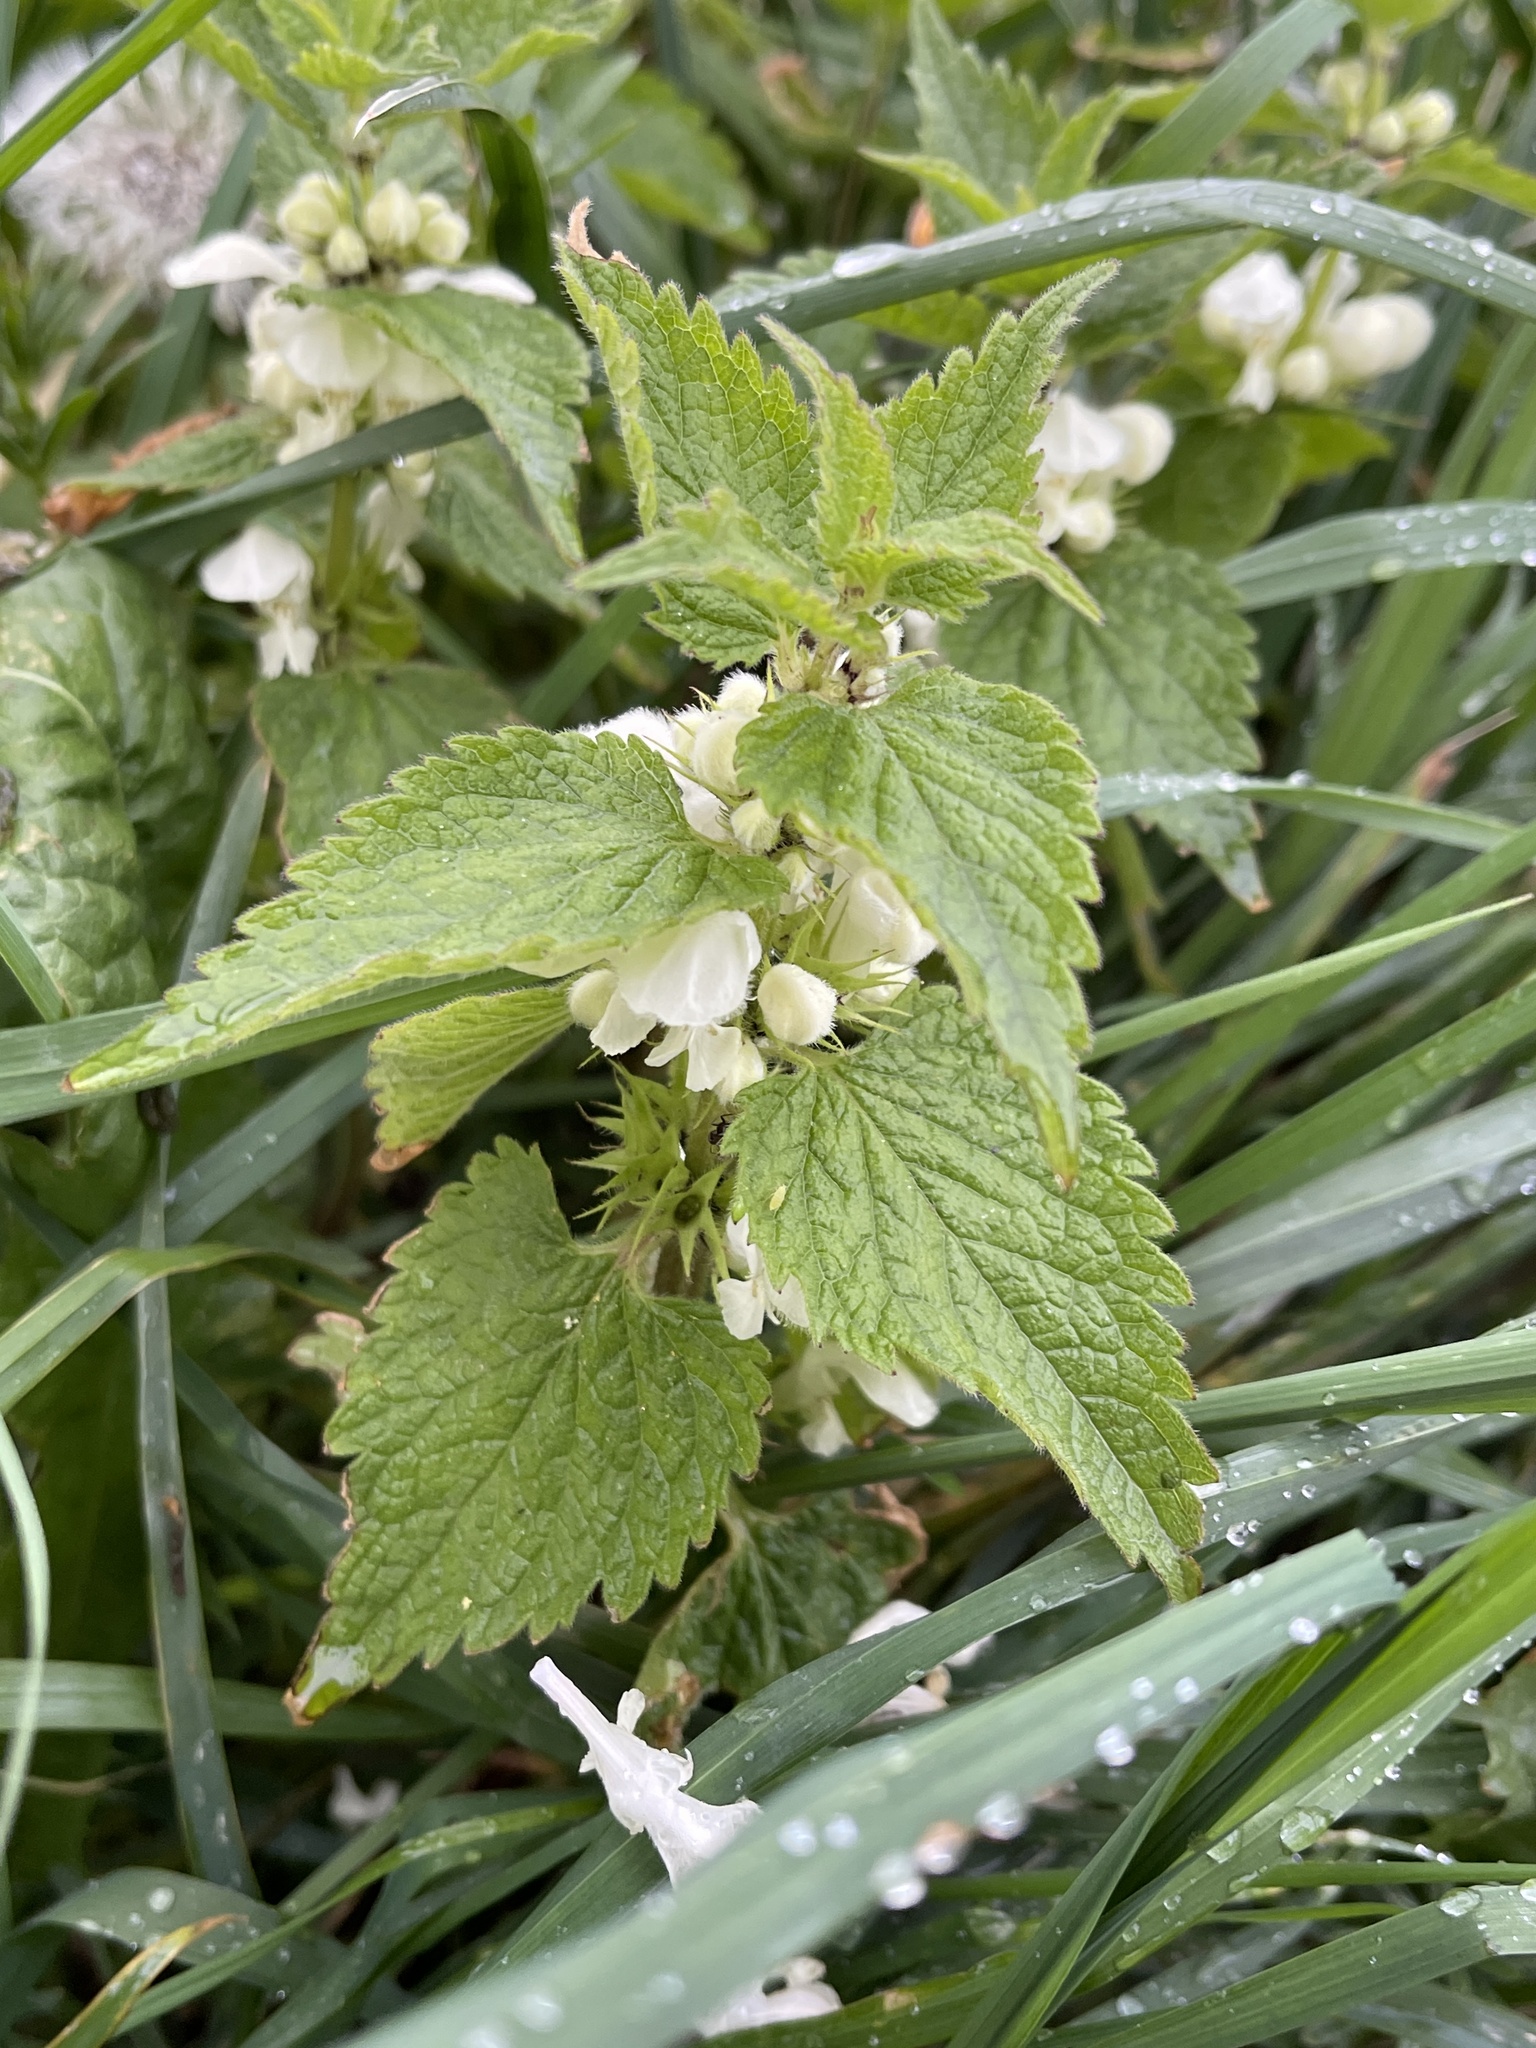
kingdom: Plantae
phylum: Tracheophyta
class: Magnoliopsida
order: Lamiales
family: Lamiaceae
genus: Lamium
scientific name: Lamium album
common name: White dead-nettle
